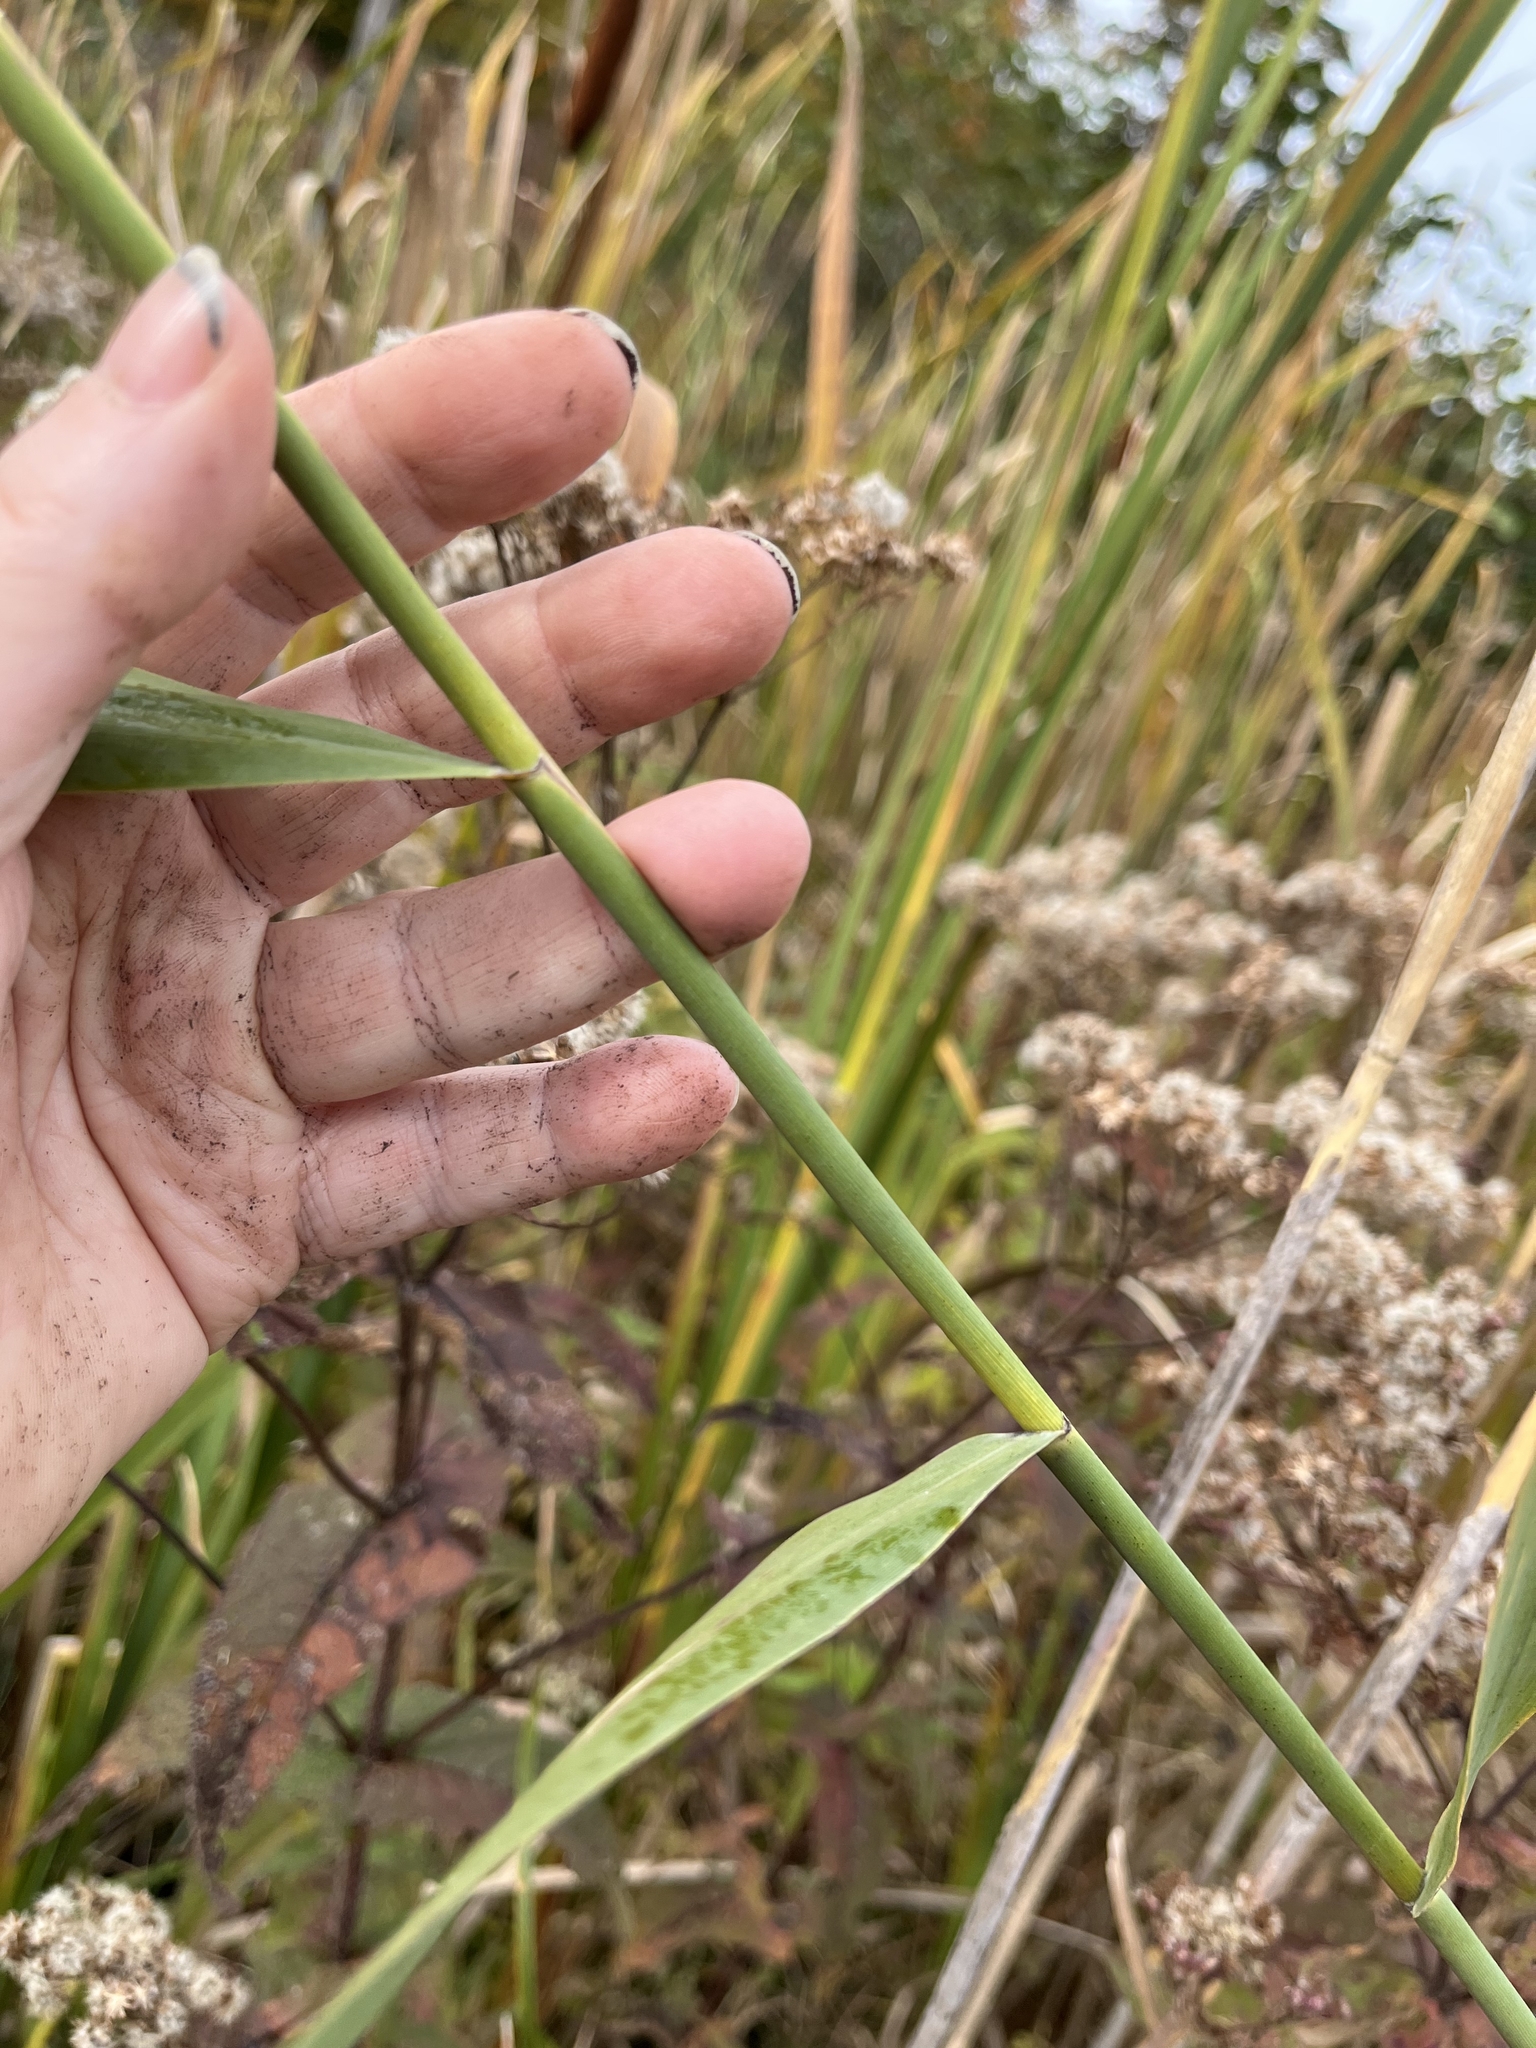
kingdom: Plantae
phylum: Tracheophyta
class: Liliopsida
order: Poales
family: Poaceae
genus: Phragmites
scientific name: Phragmites australis
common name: Common reed
